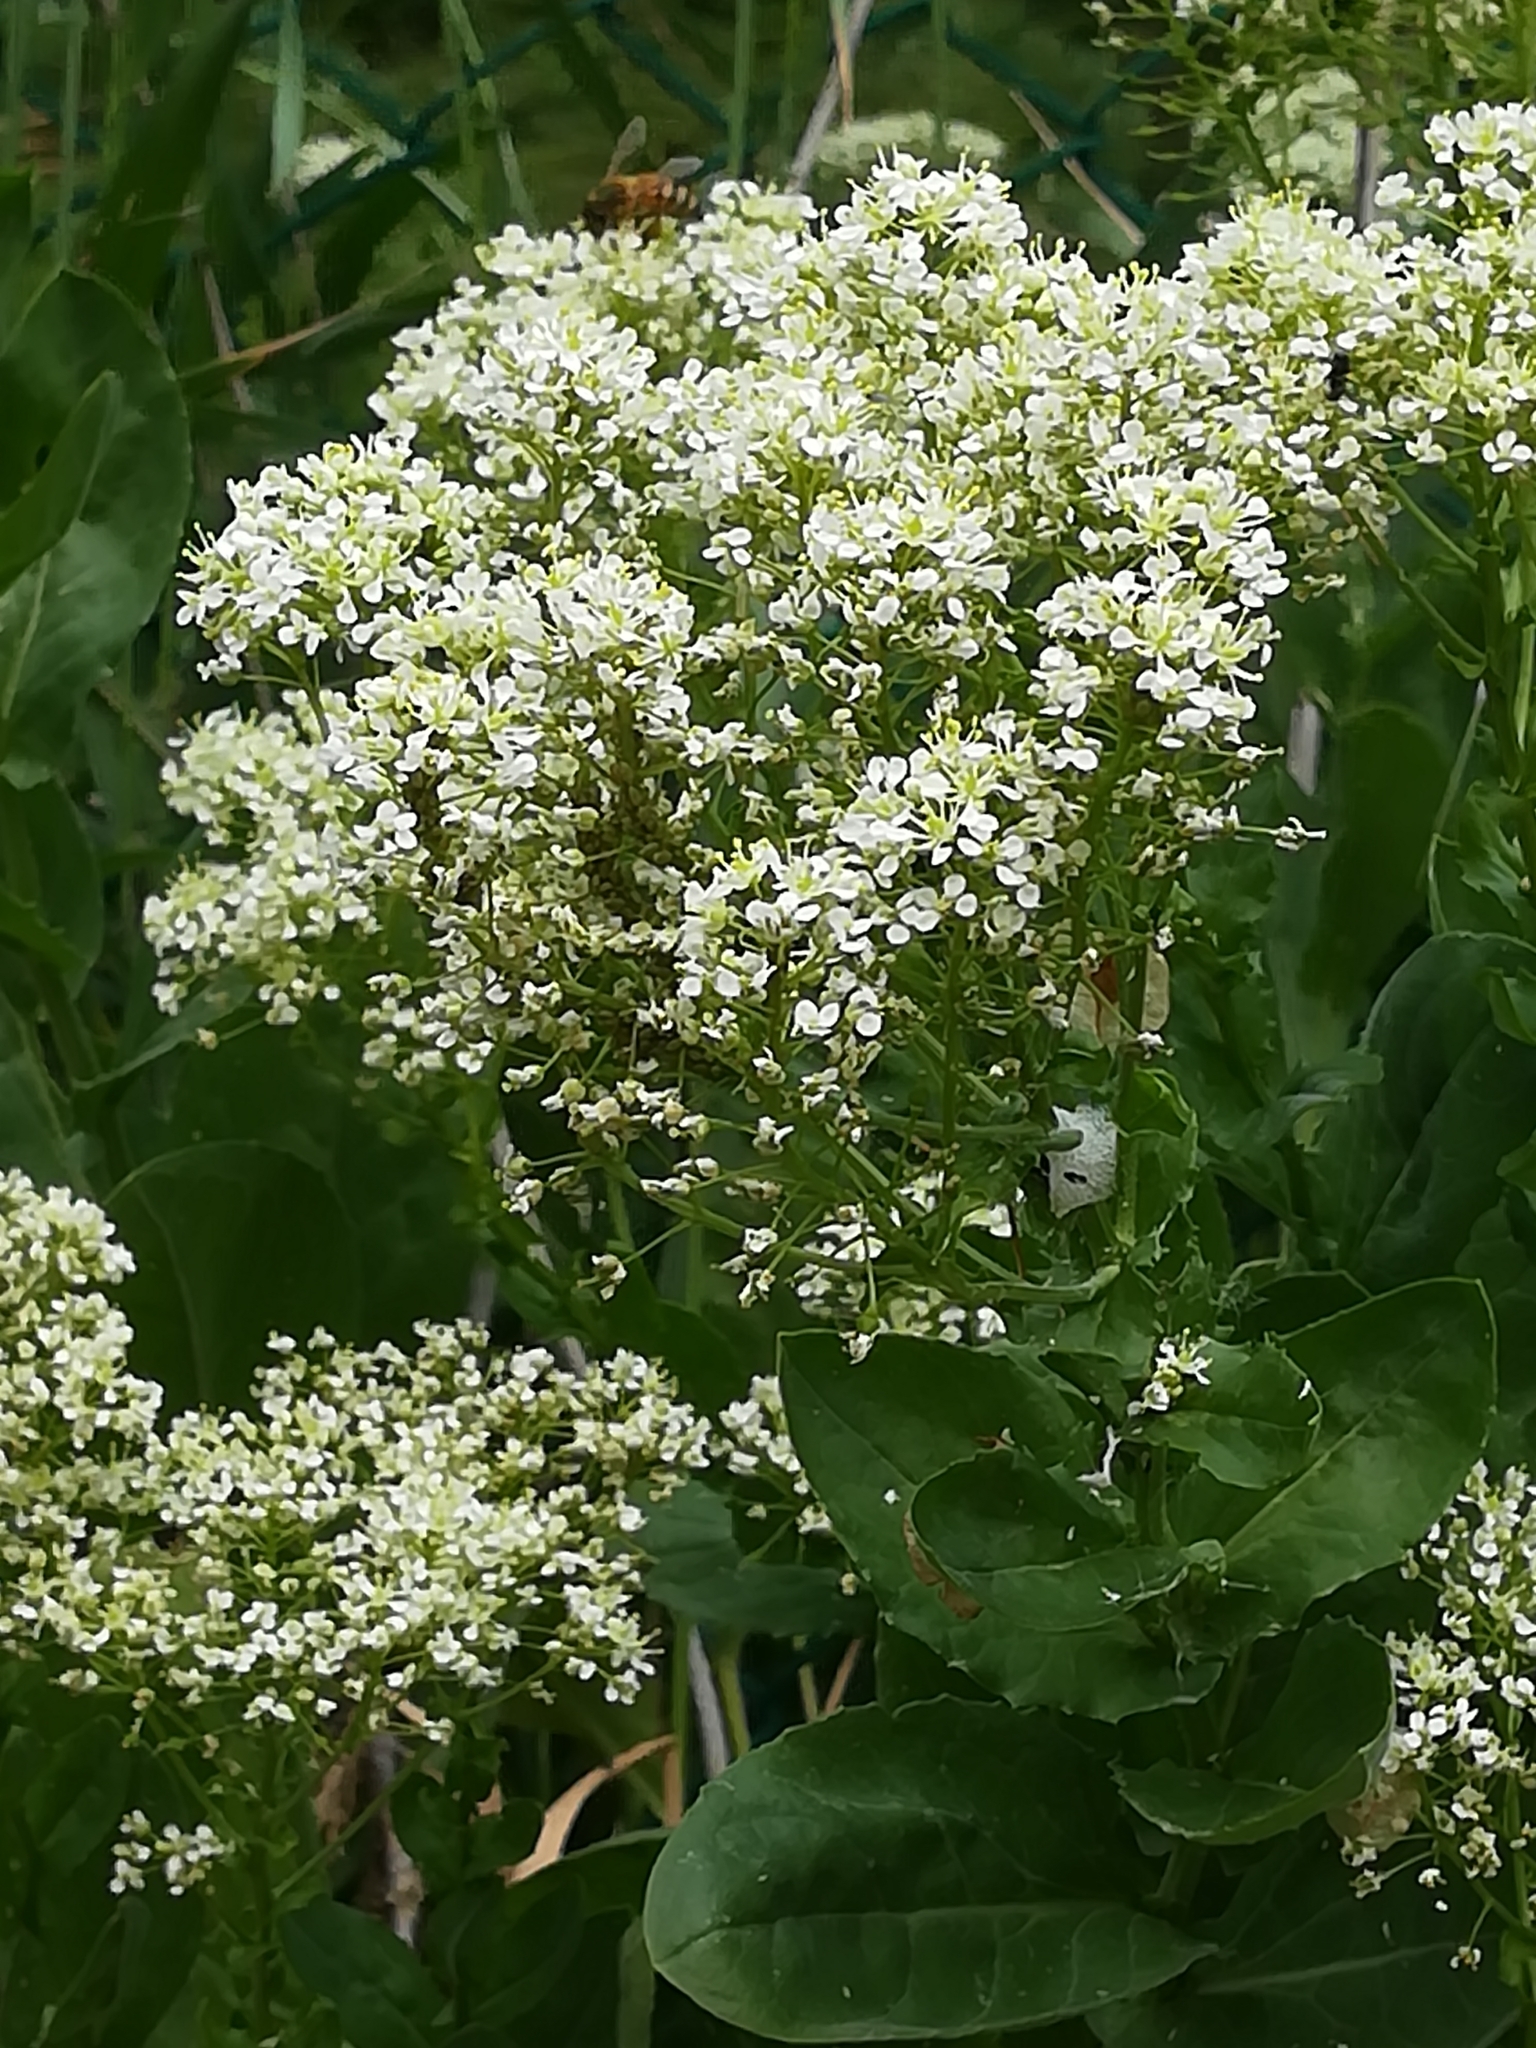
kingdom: Plantae
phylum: Tracheophyta
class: Magnoliopsida
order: Brassicales
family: Brassicaceae
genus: Lepidium
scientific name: Lepidium draba
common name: Hoary cress
